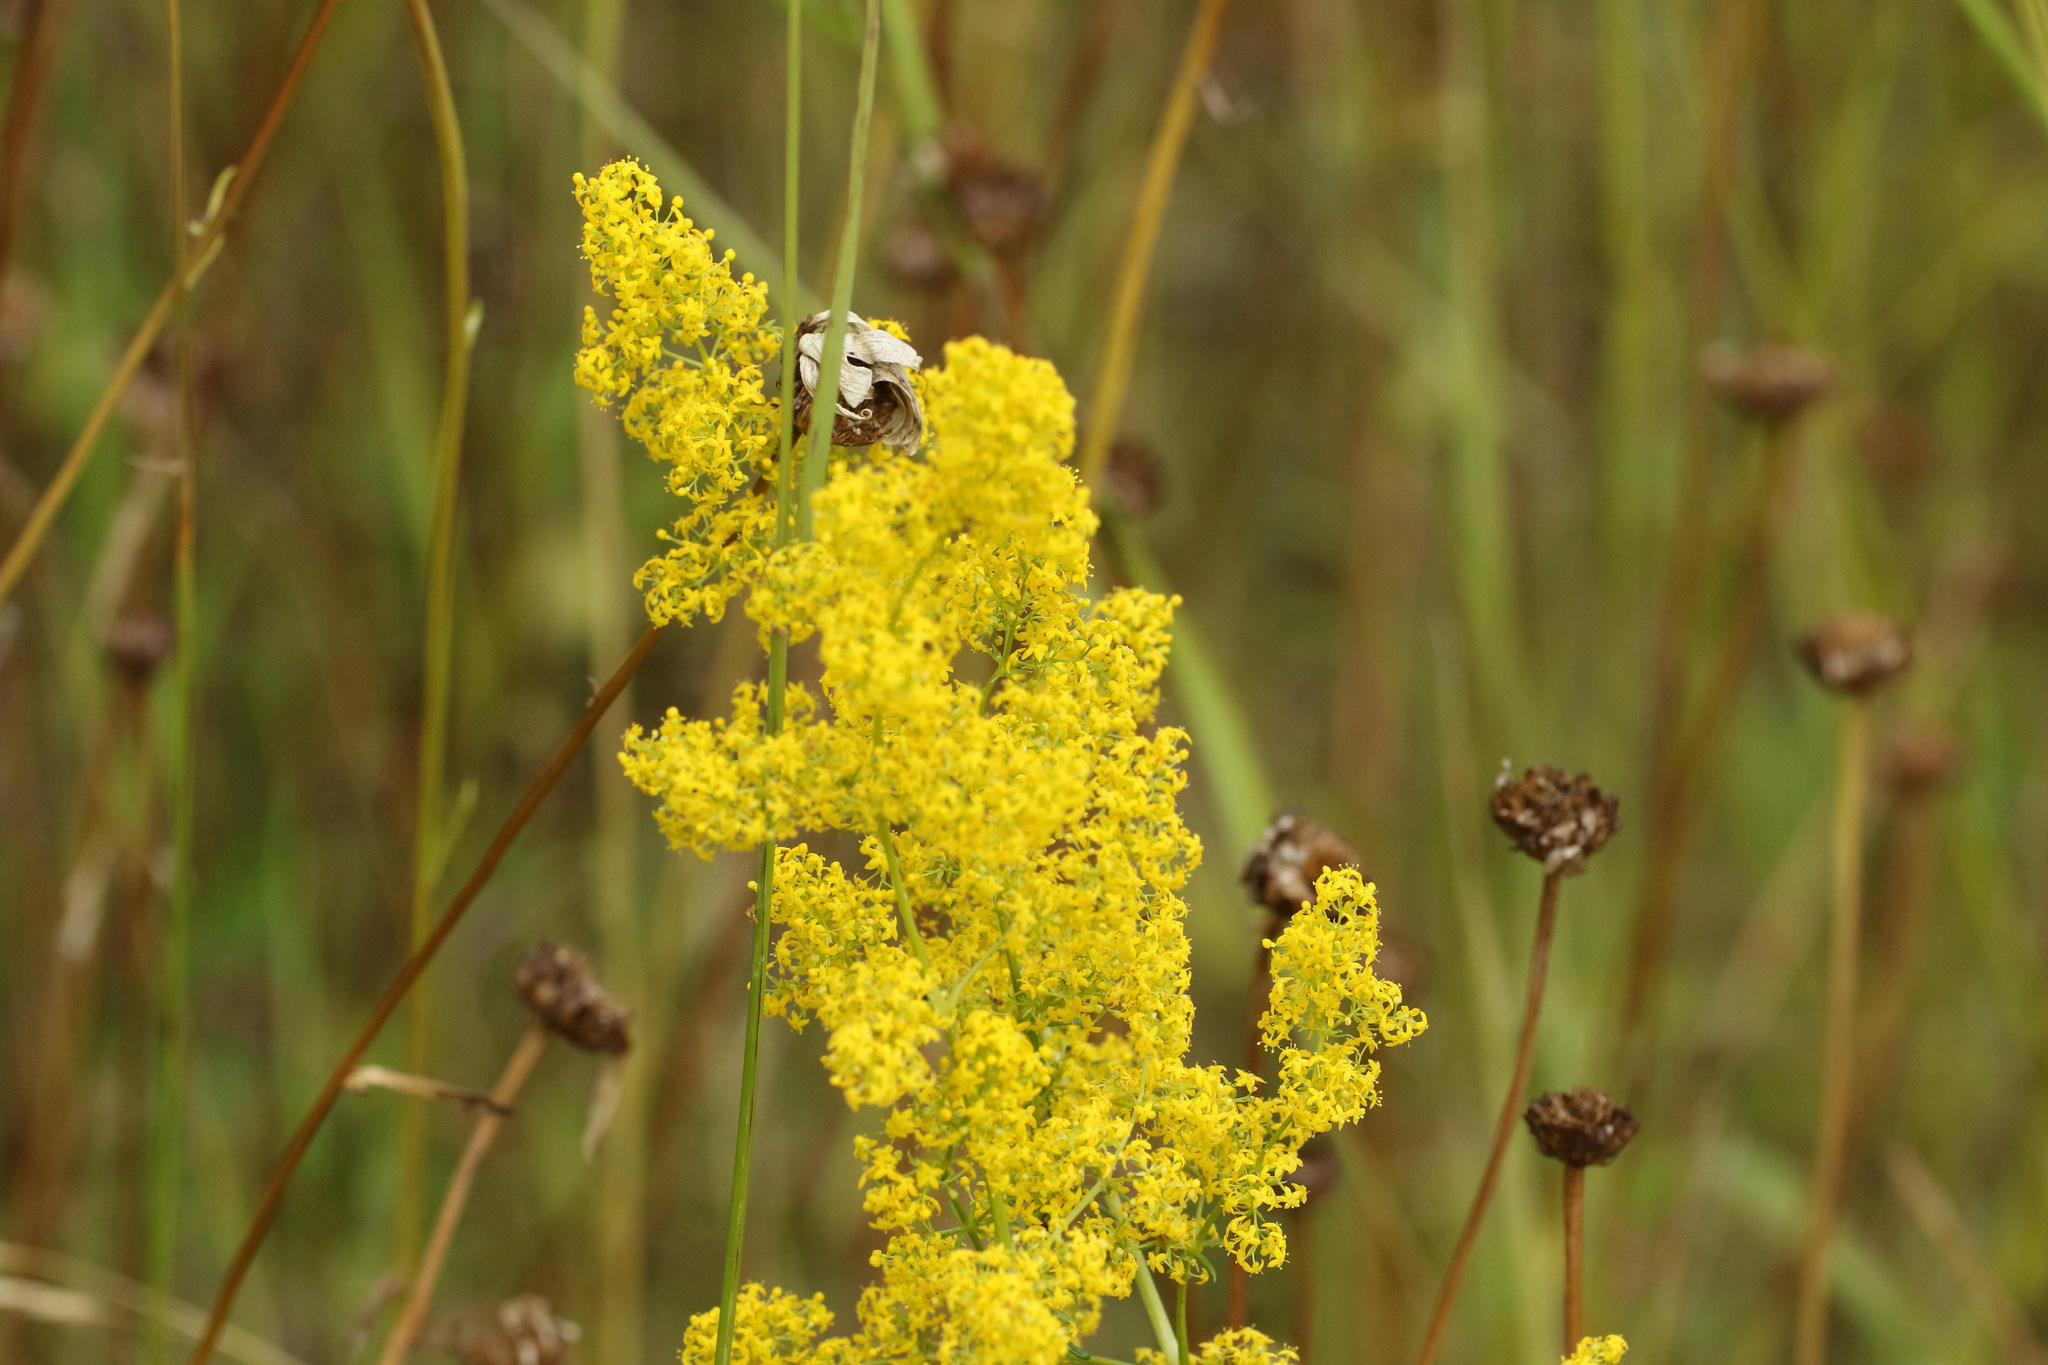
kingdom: Plantae
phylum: Tracheophyta
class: Magnoliopsida
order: Gentianales
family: Rubiaceae
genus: Galium
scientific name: Galium verum
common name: Lady's bedstraw
